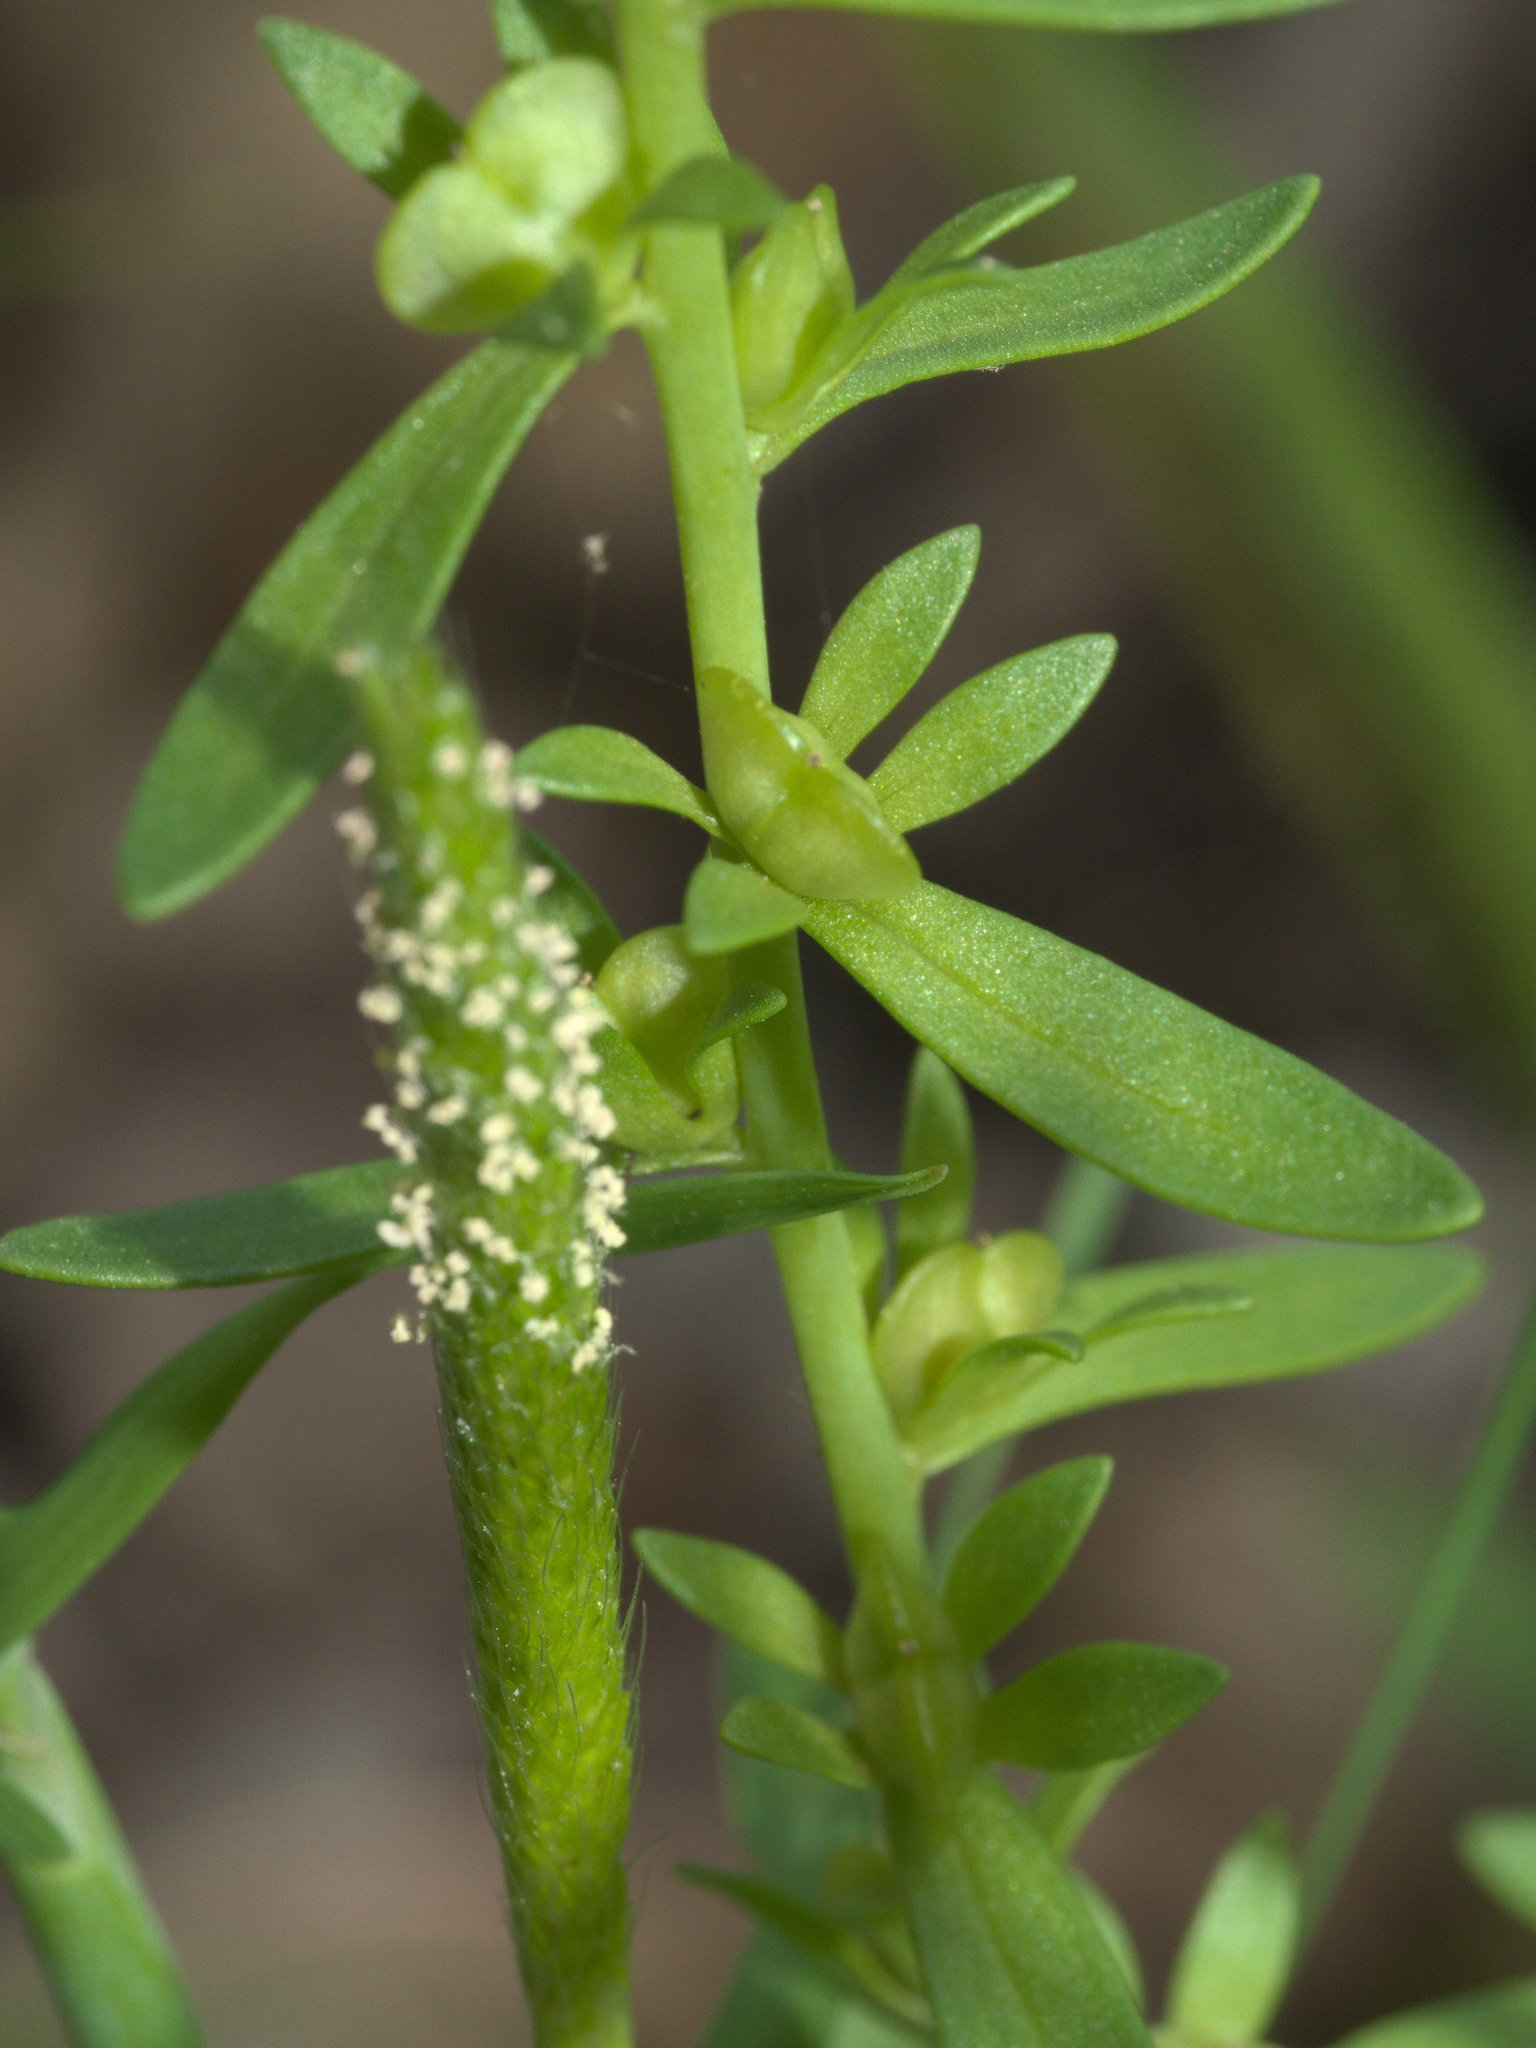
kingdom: Plantae
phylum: Tracheophyta
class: Liliopsida
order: Poales
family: Poaceae
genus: Alopecurus
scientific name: Alopecurus carolinianus
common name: Tufted foxtail
